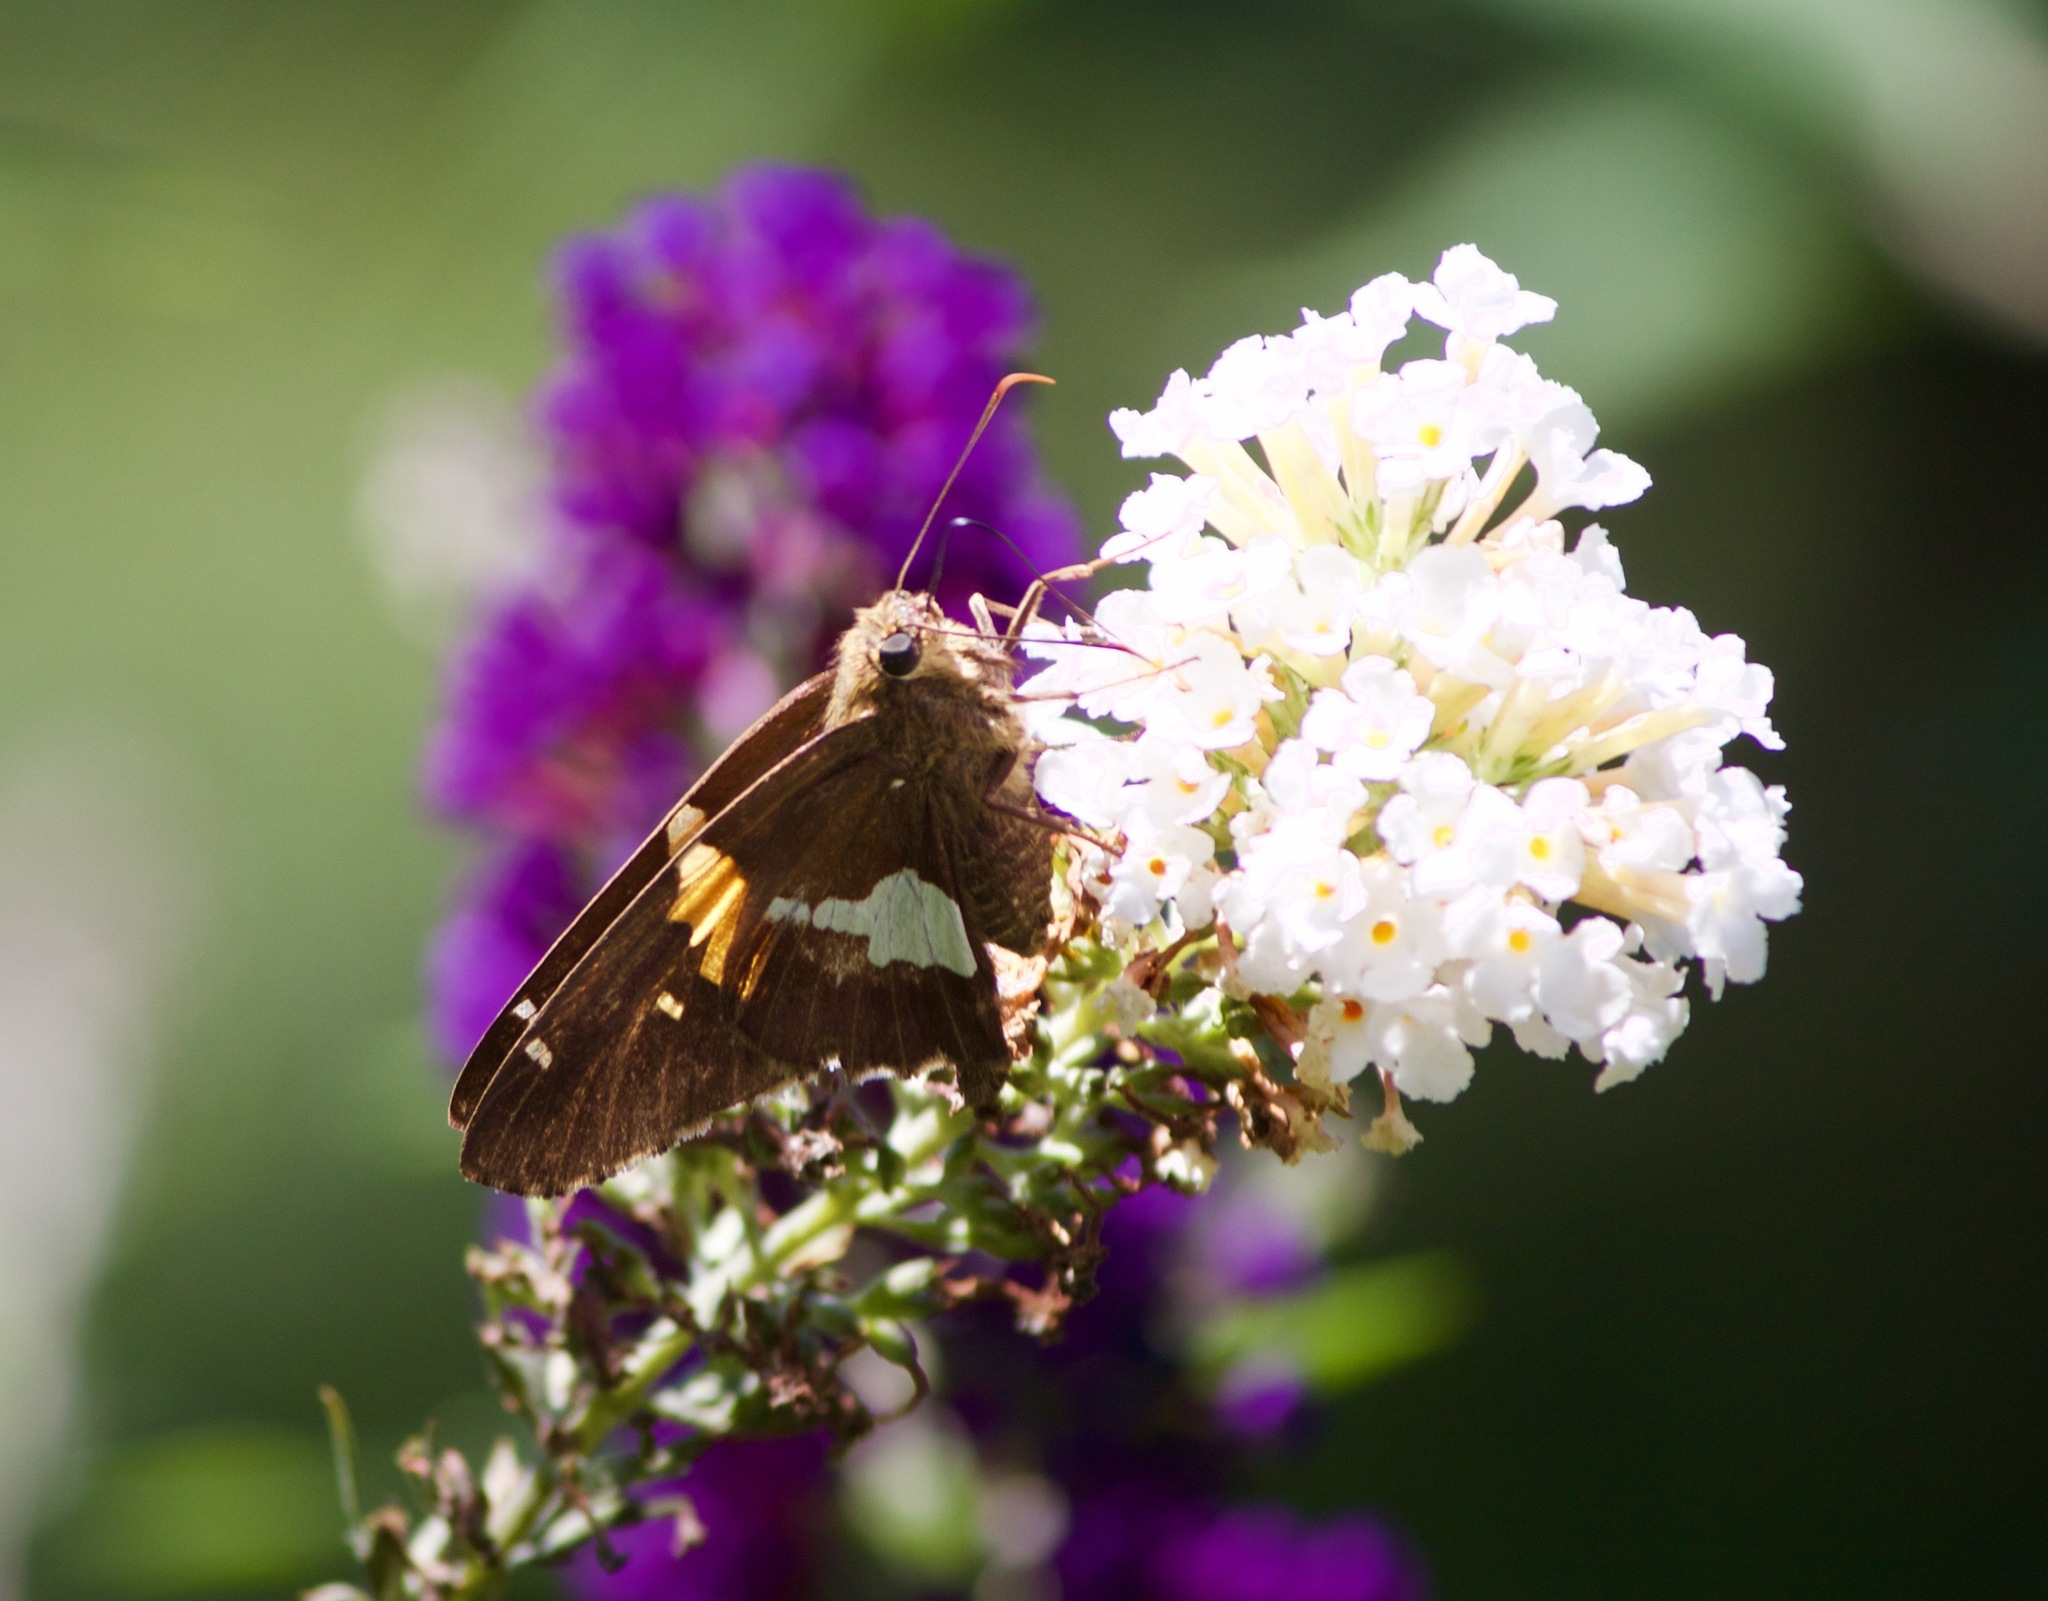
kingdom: Animalia
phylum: Arthropoda
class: Insecta
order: Lepidoptera
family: Hesperiidae
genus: Epargyreus
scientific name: Epargyreus clarus
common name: Silver-spotted skipper
